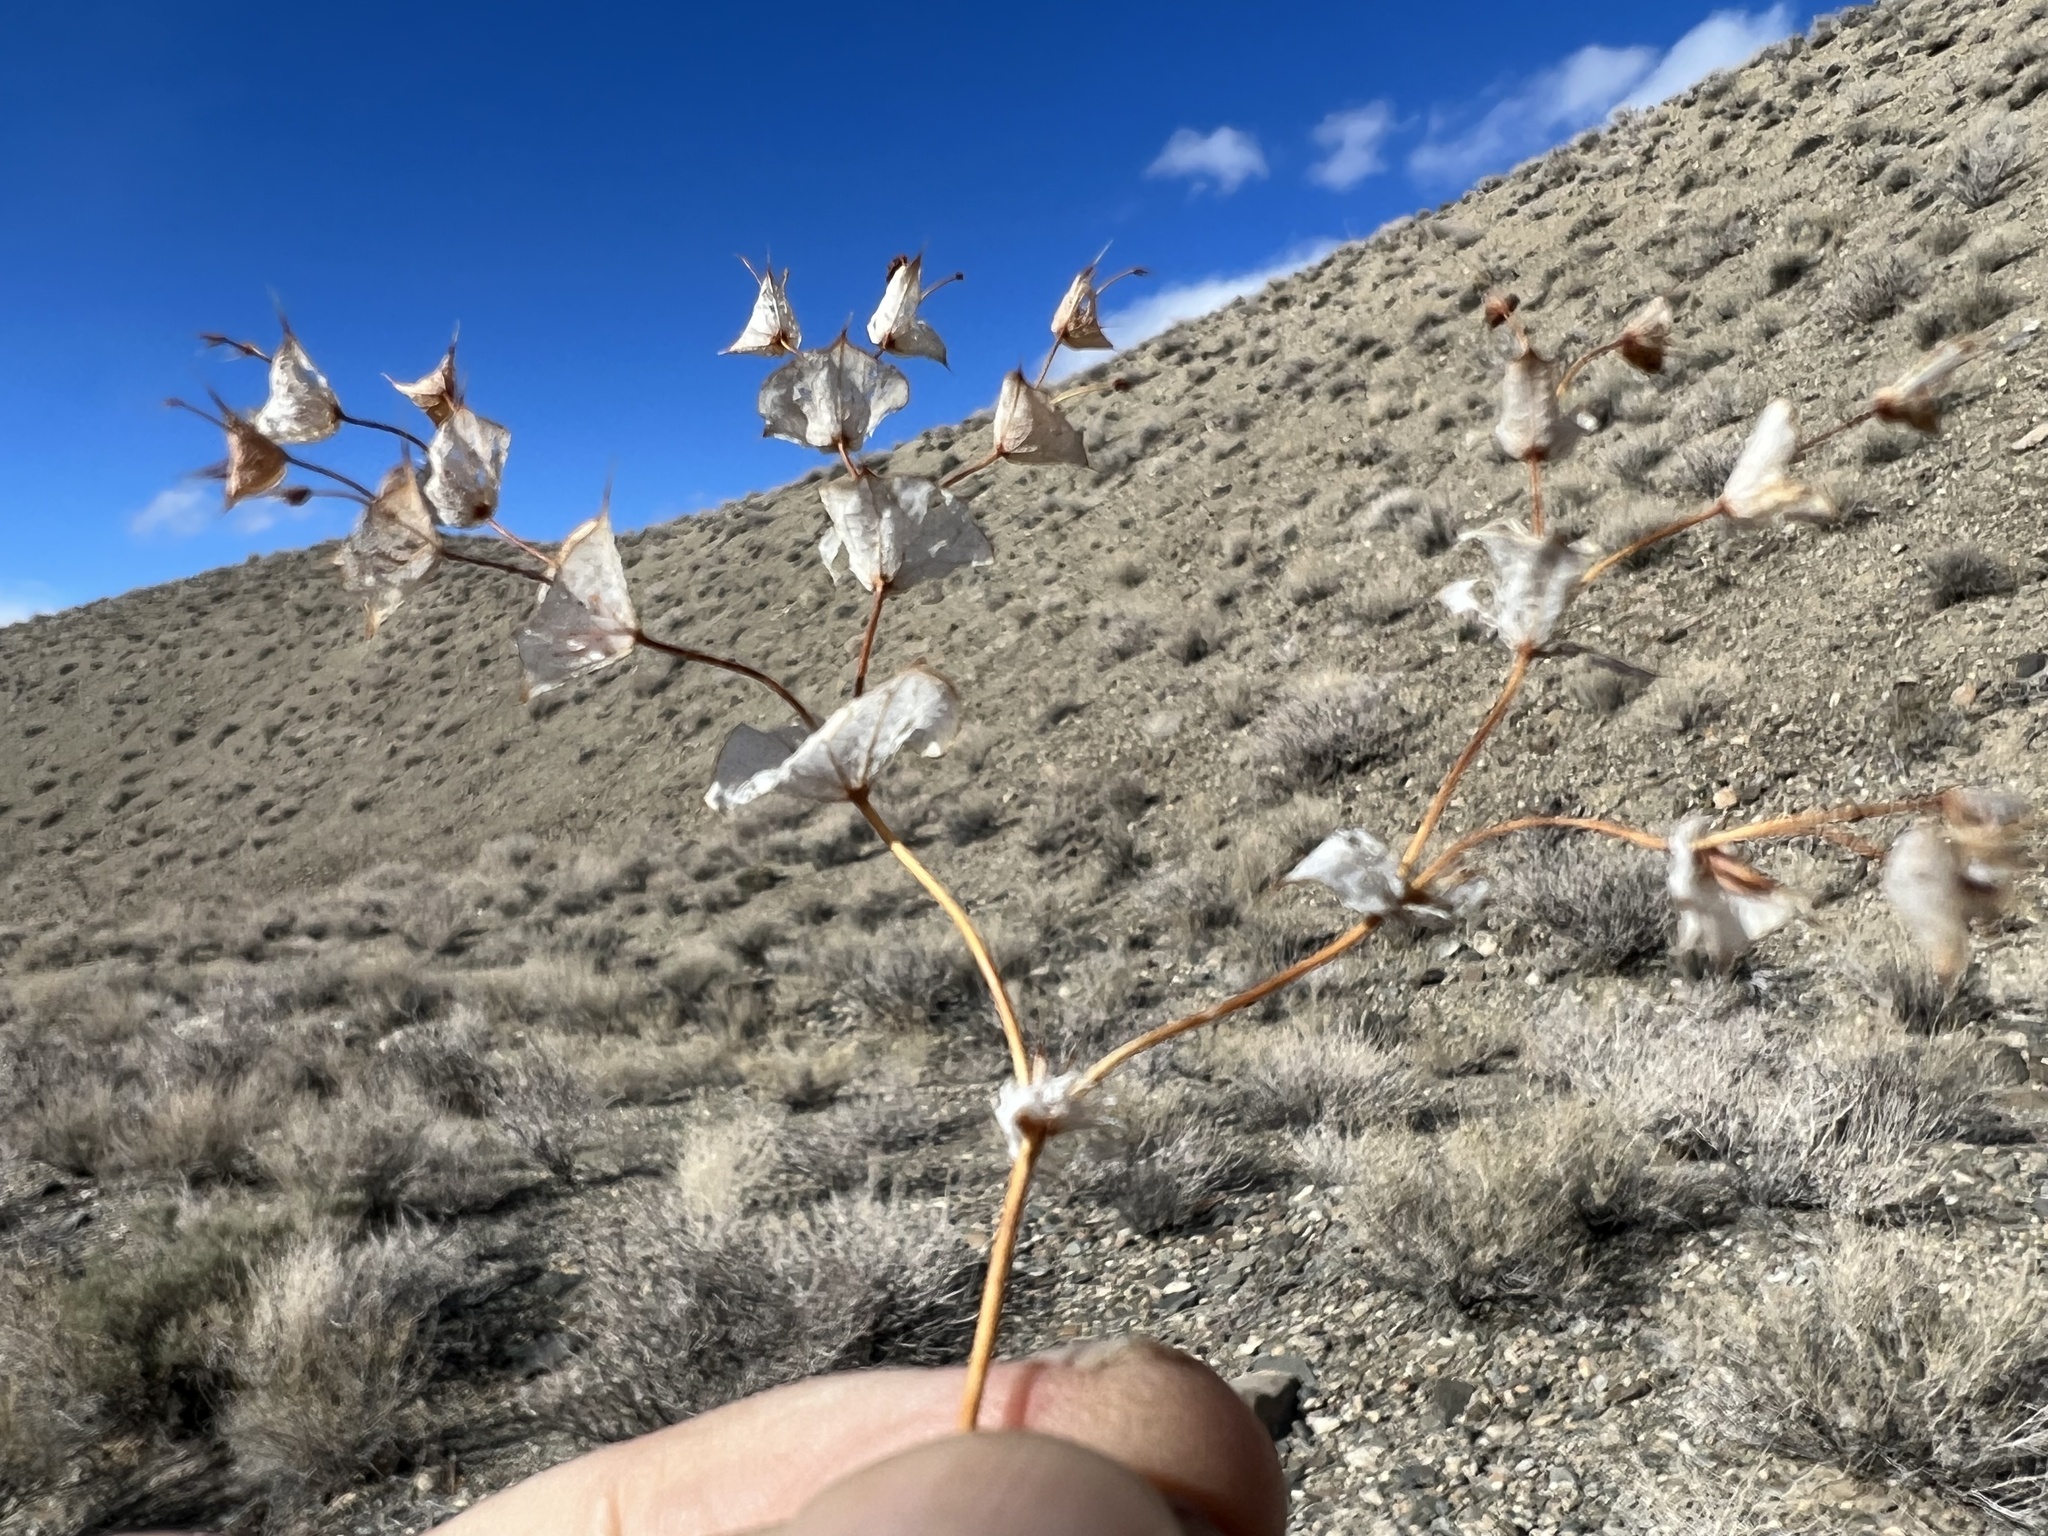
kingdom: Plantae
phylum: Tracheophyta
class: Magnoliopsida
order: Caryophyllales
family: Polygonaceae
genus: Oxytheca
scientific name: Oxytheca perfoliata
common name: Round-leaf puncturebract
